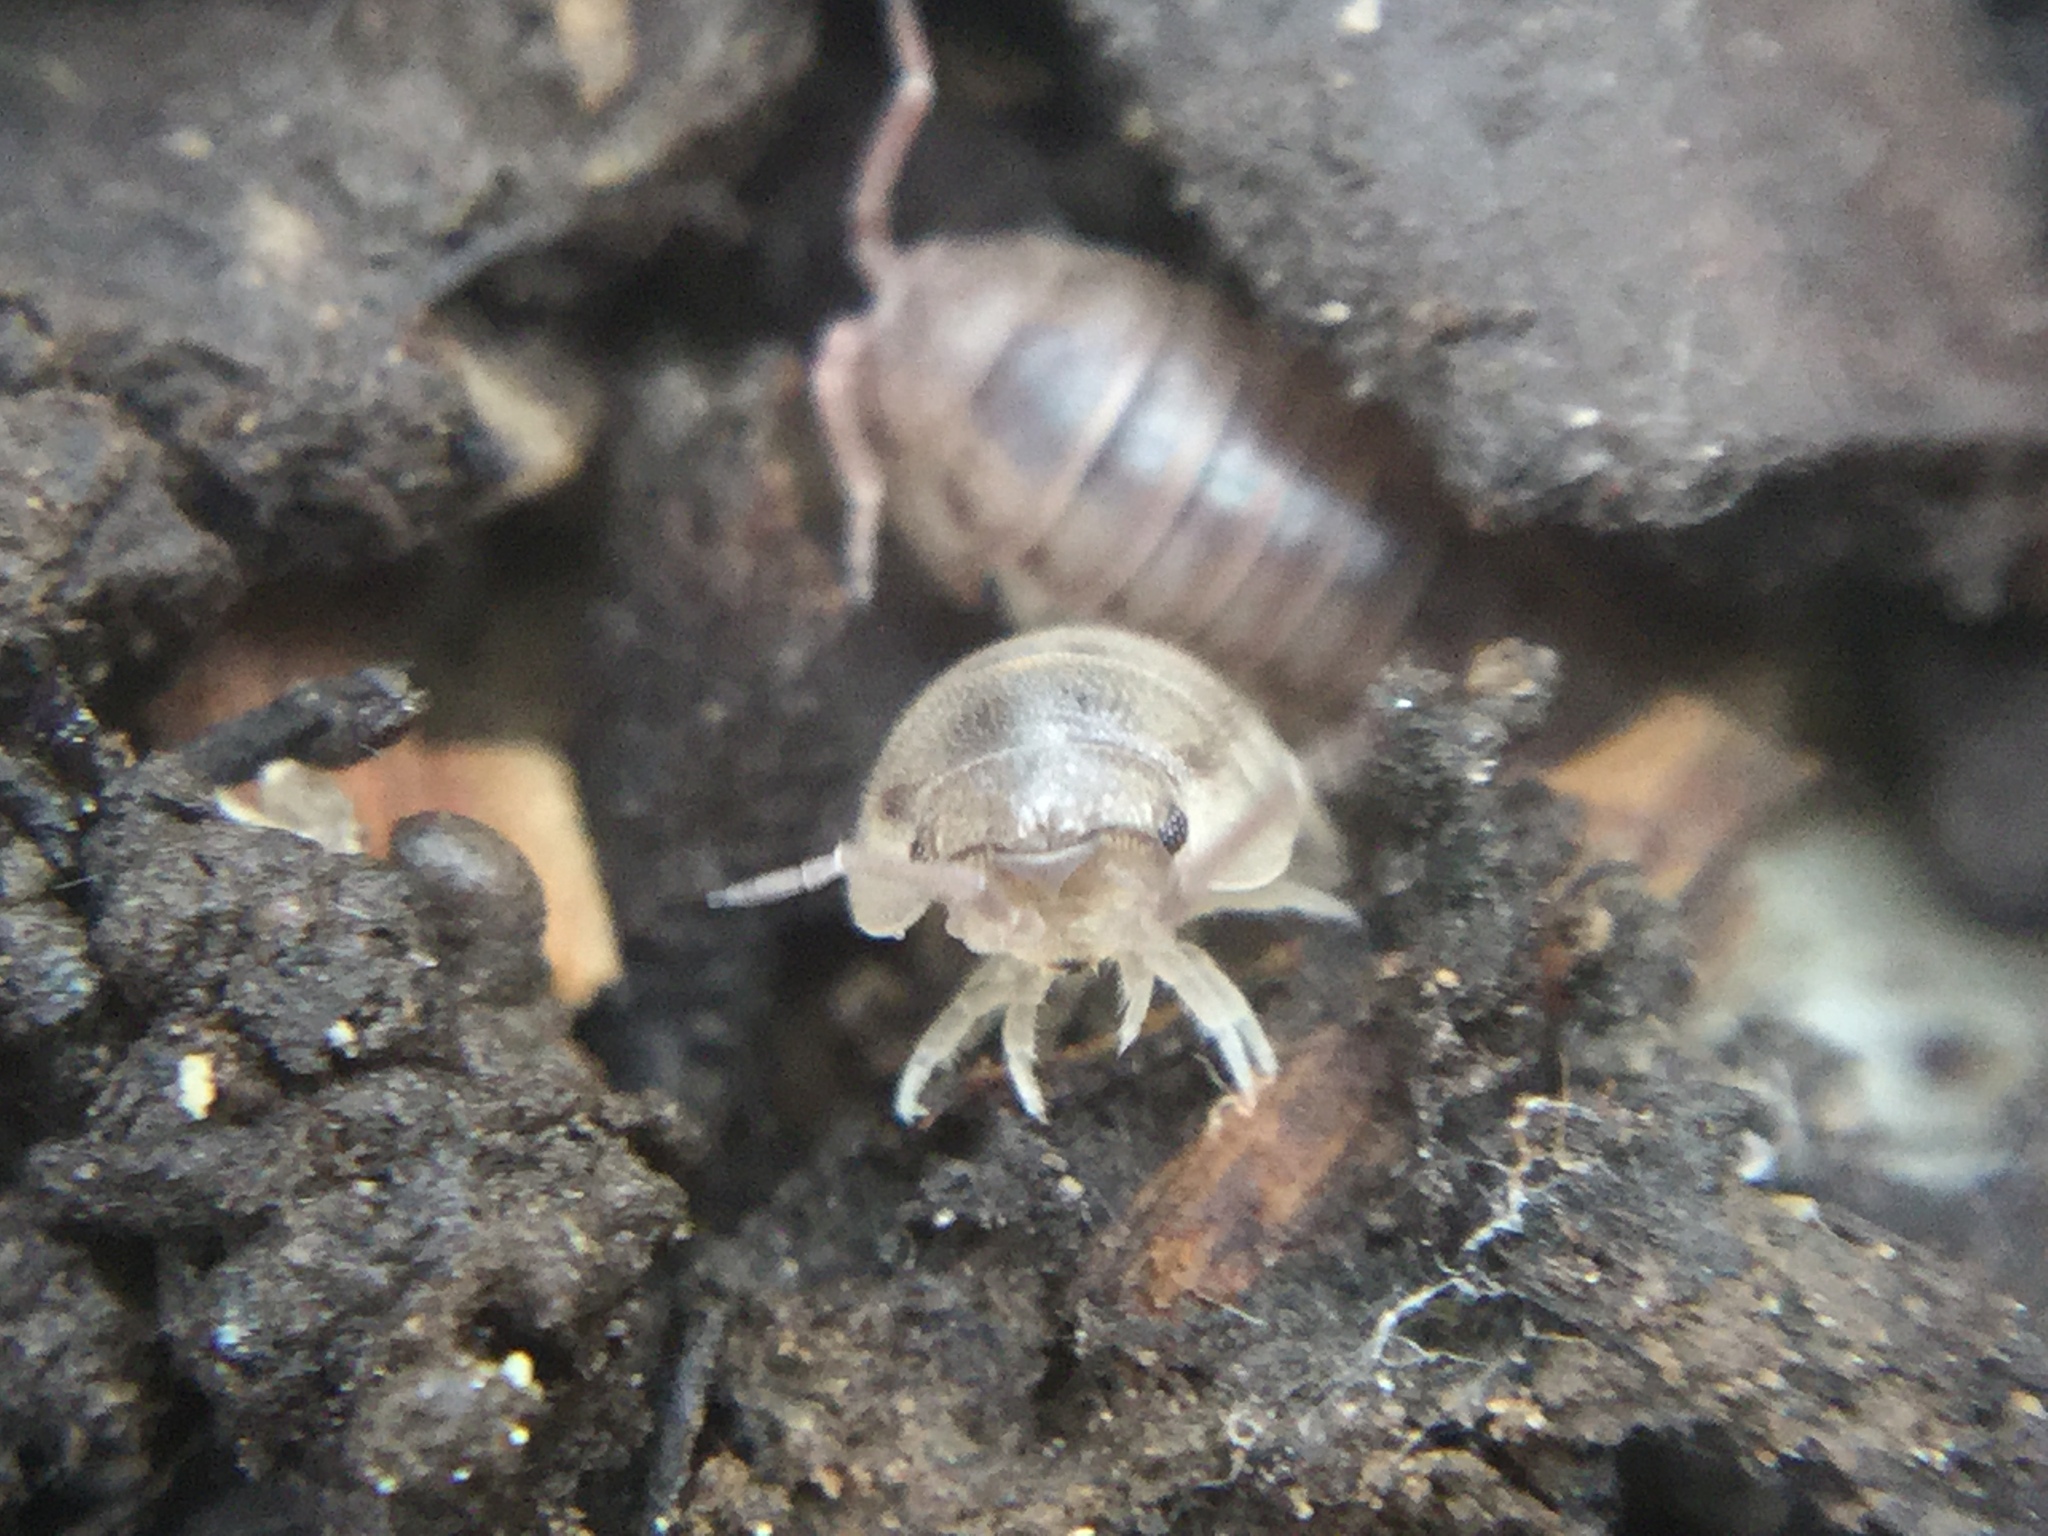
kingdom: Animalia
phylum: Arthropoda
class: Malacostraca
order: Isopoda
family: Armadillidiidae
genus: Armadillidium
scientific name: Armadillidium nasatum
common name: Isopod
